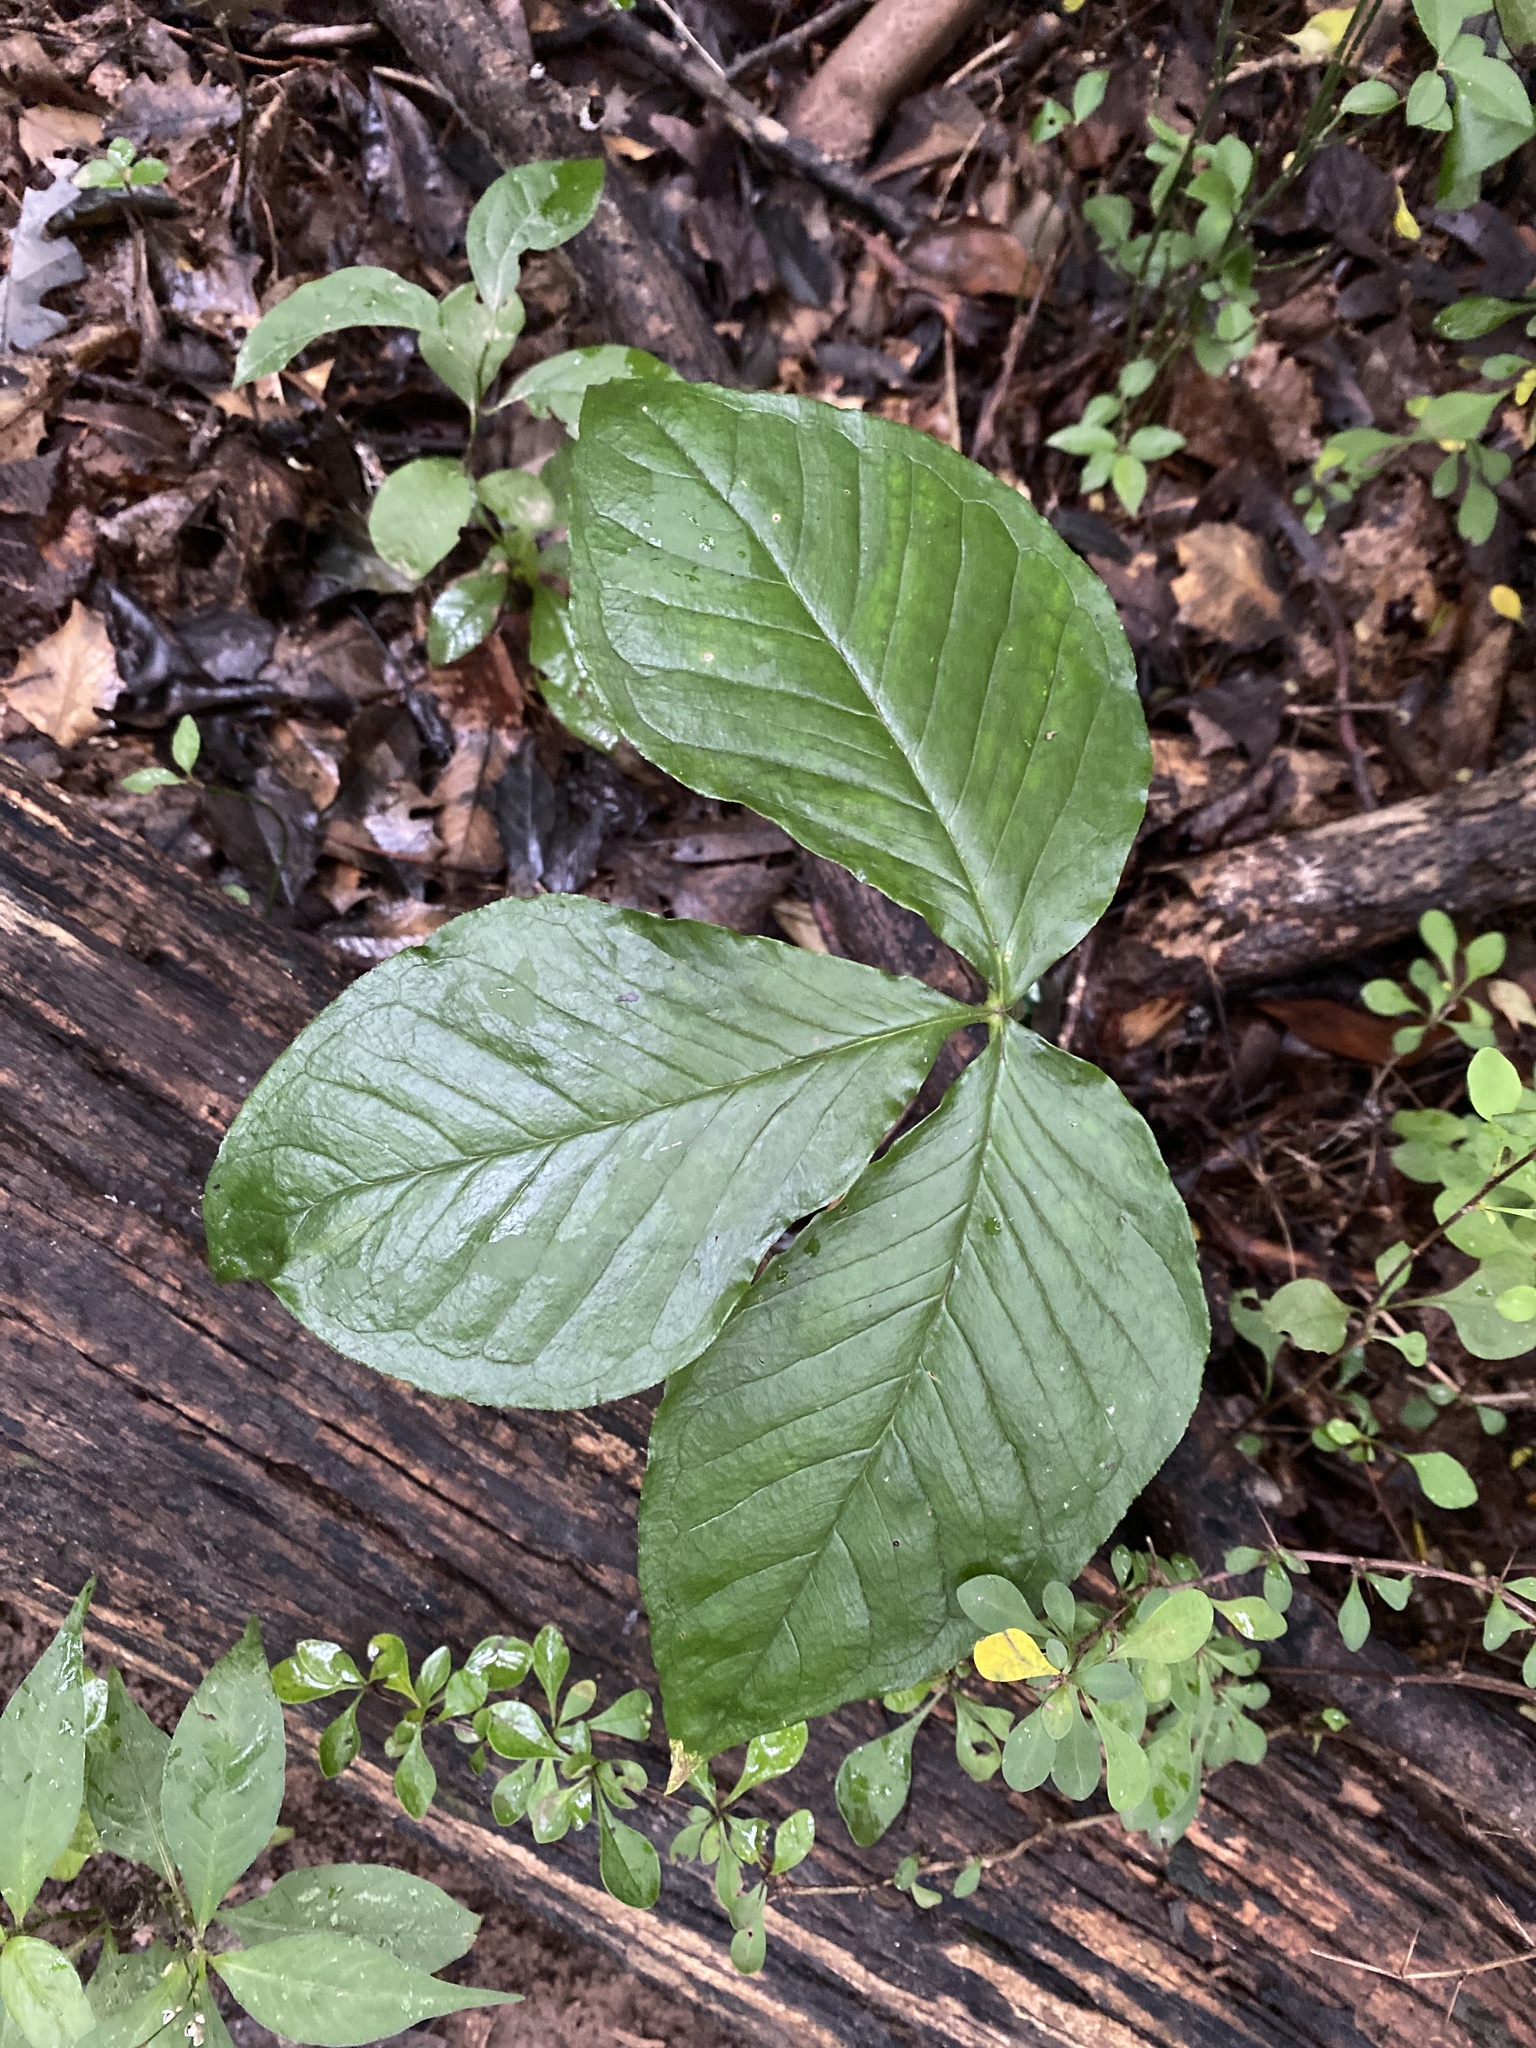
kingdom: Plantae
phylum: Tracheophyta
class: Liliopsida
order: Alismatales
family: Araceae
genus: Arisaema
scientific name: Arisaema triphyllum
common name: Jack-in-the-pulpit
